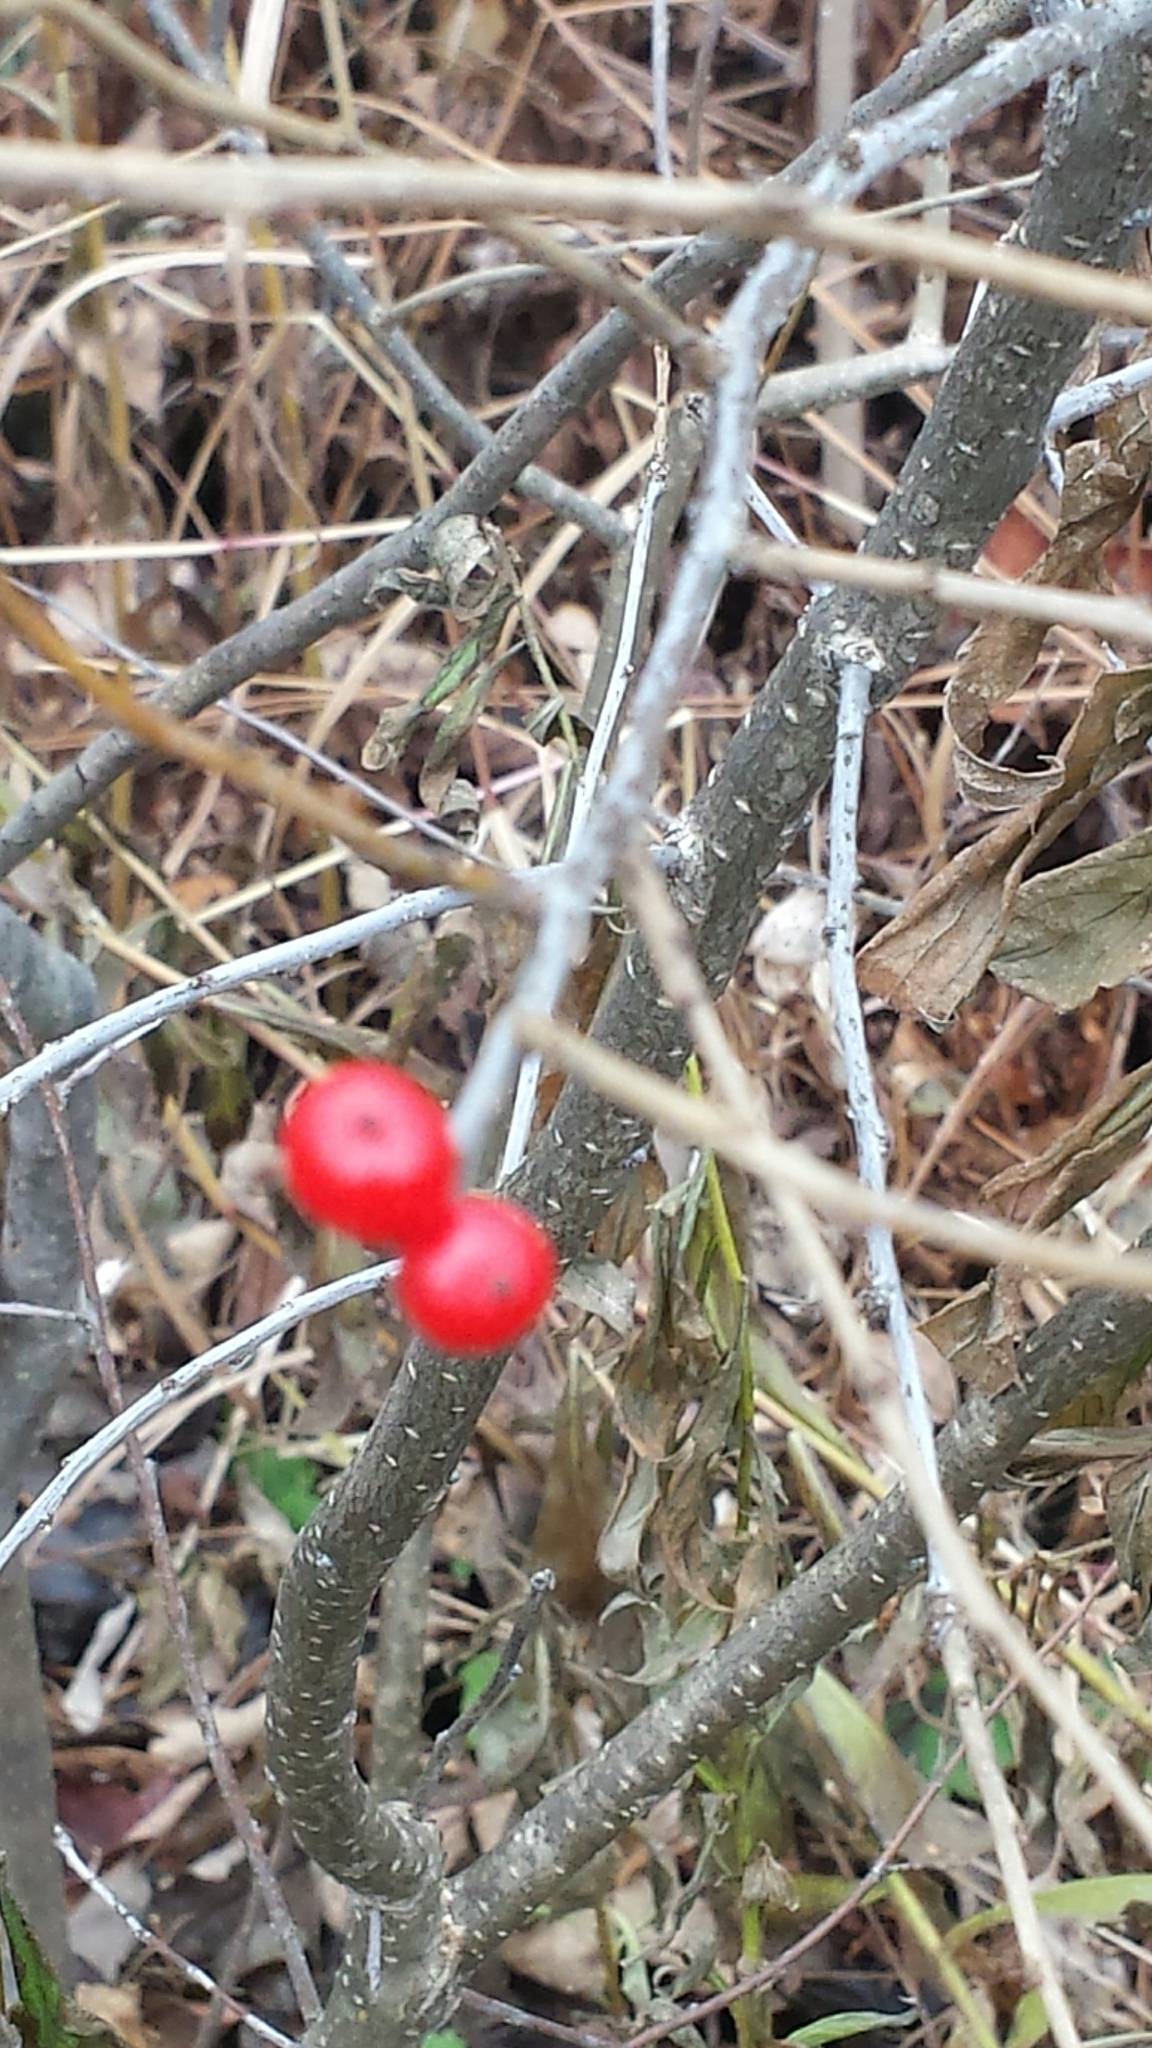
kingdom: Plantae
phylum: Tracheophyta
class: Magnoliopsida
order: Aquifoliales
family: Aquifoliaceae
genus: Ilex
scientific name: Ilex verticillata
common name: Virginia winterberry
